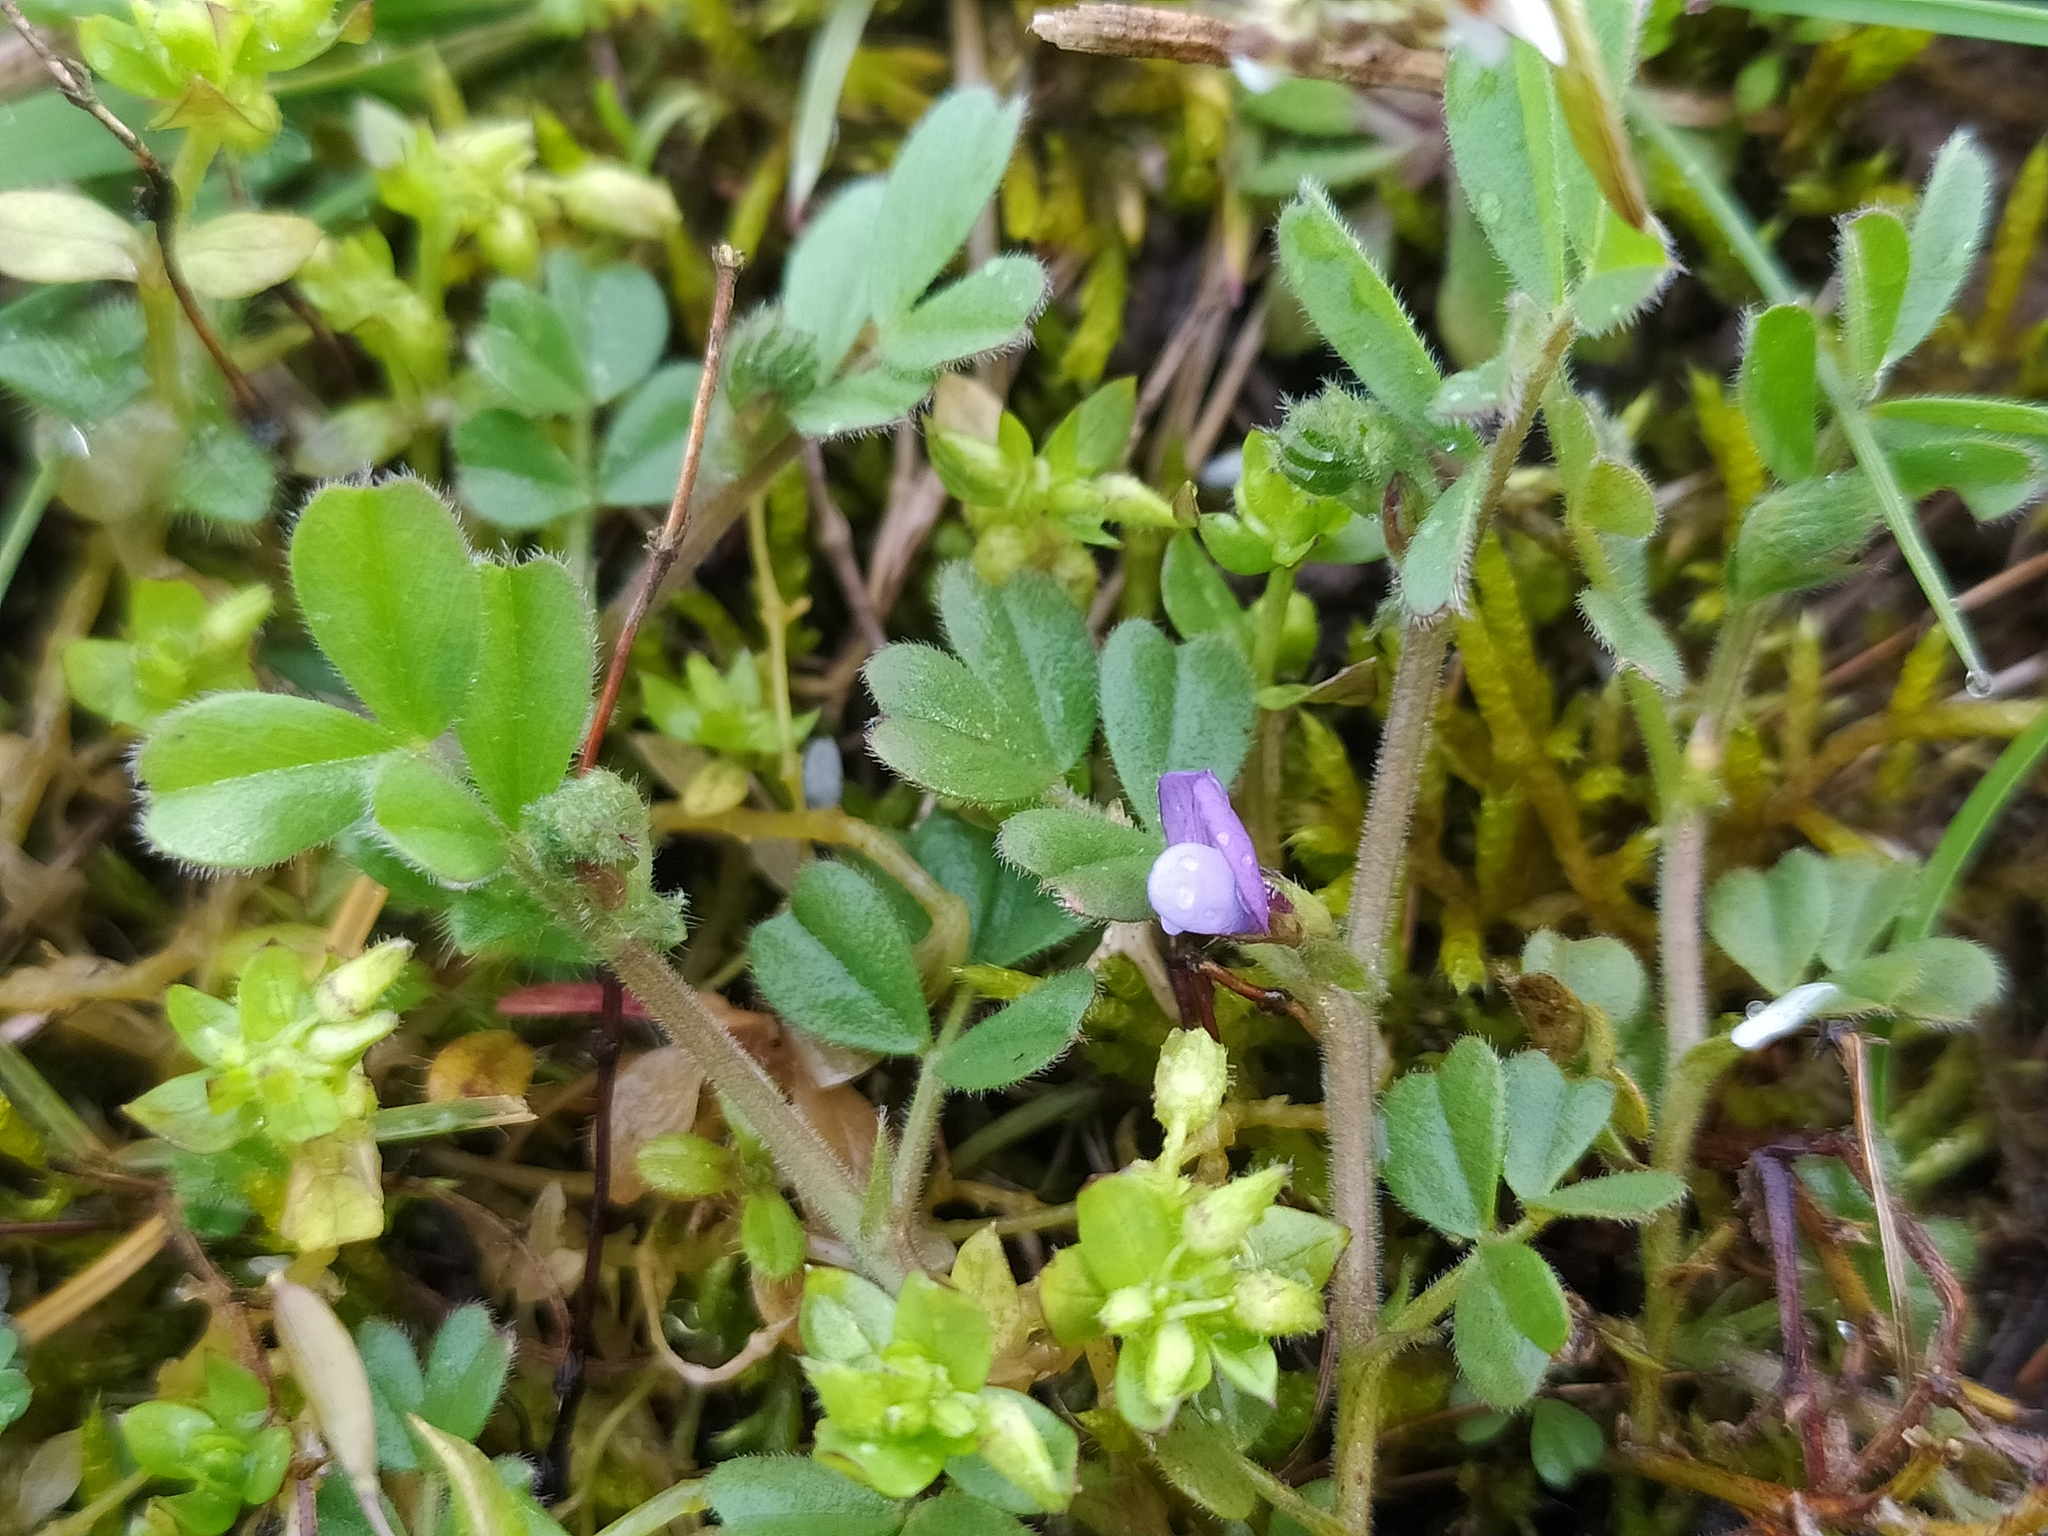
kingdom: Plantae
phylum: Tracheophyta
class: Magnoliopsida
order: Fabales
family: Fabaceae
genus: Vicia
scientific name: Vicia lathyroides
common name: Spring vetch
